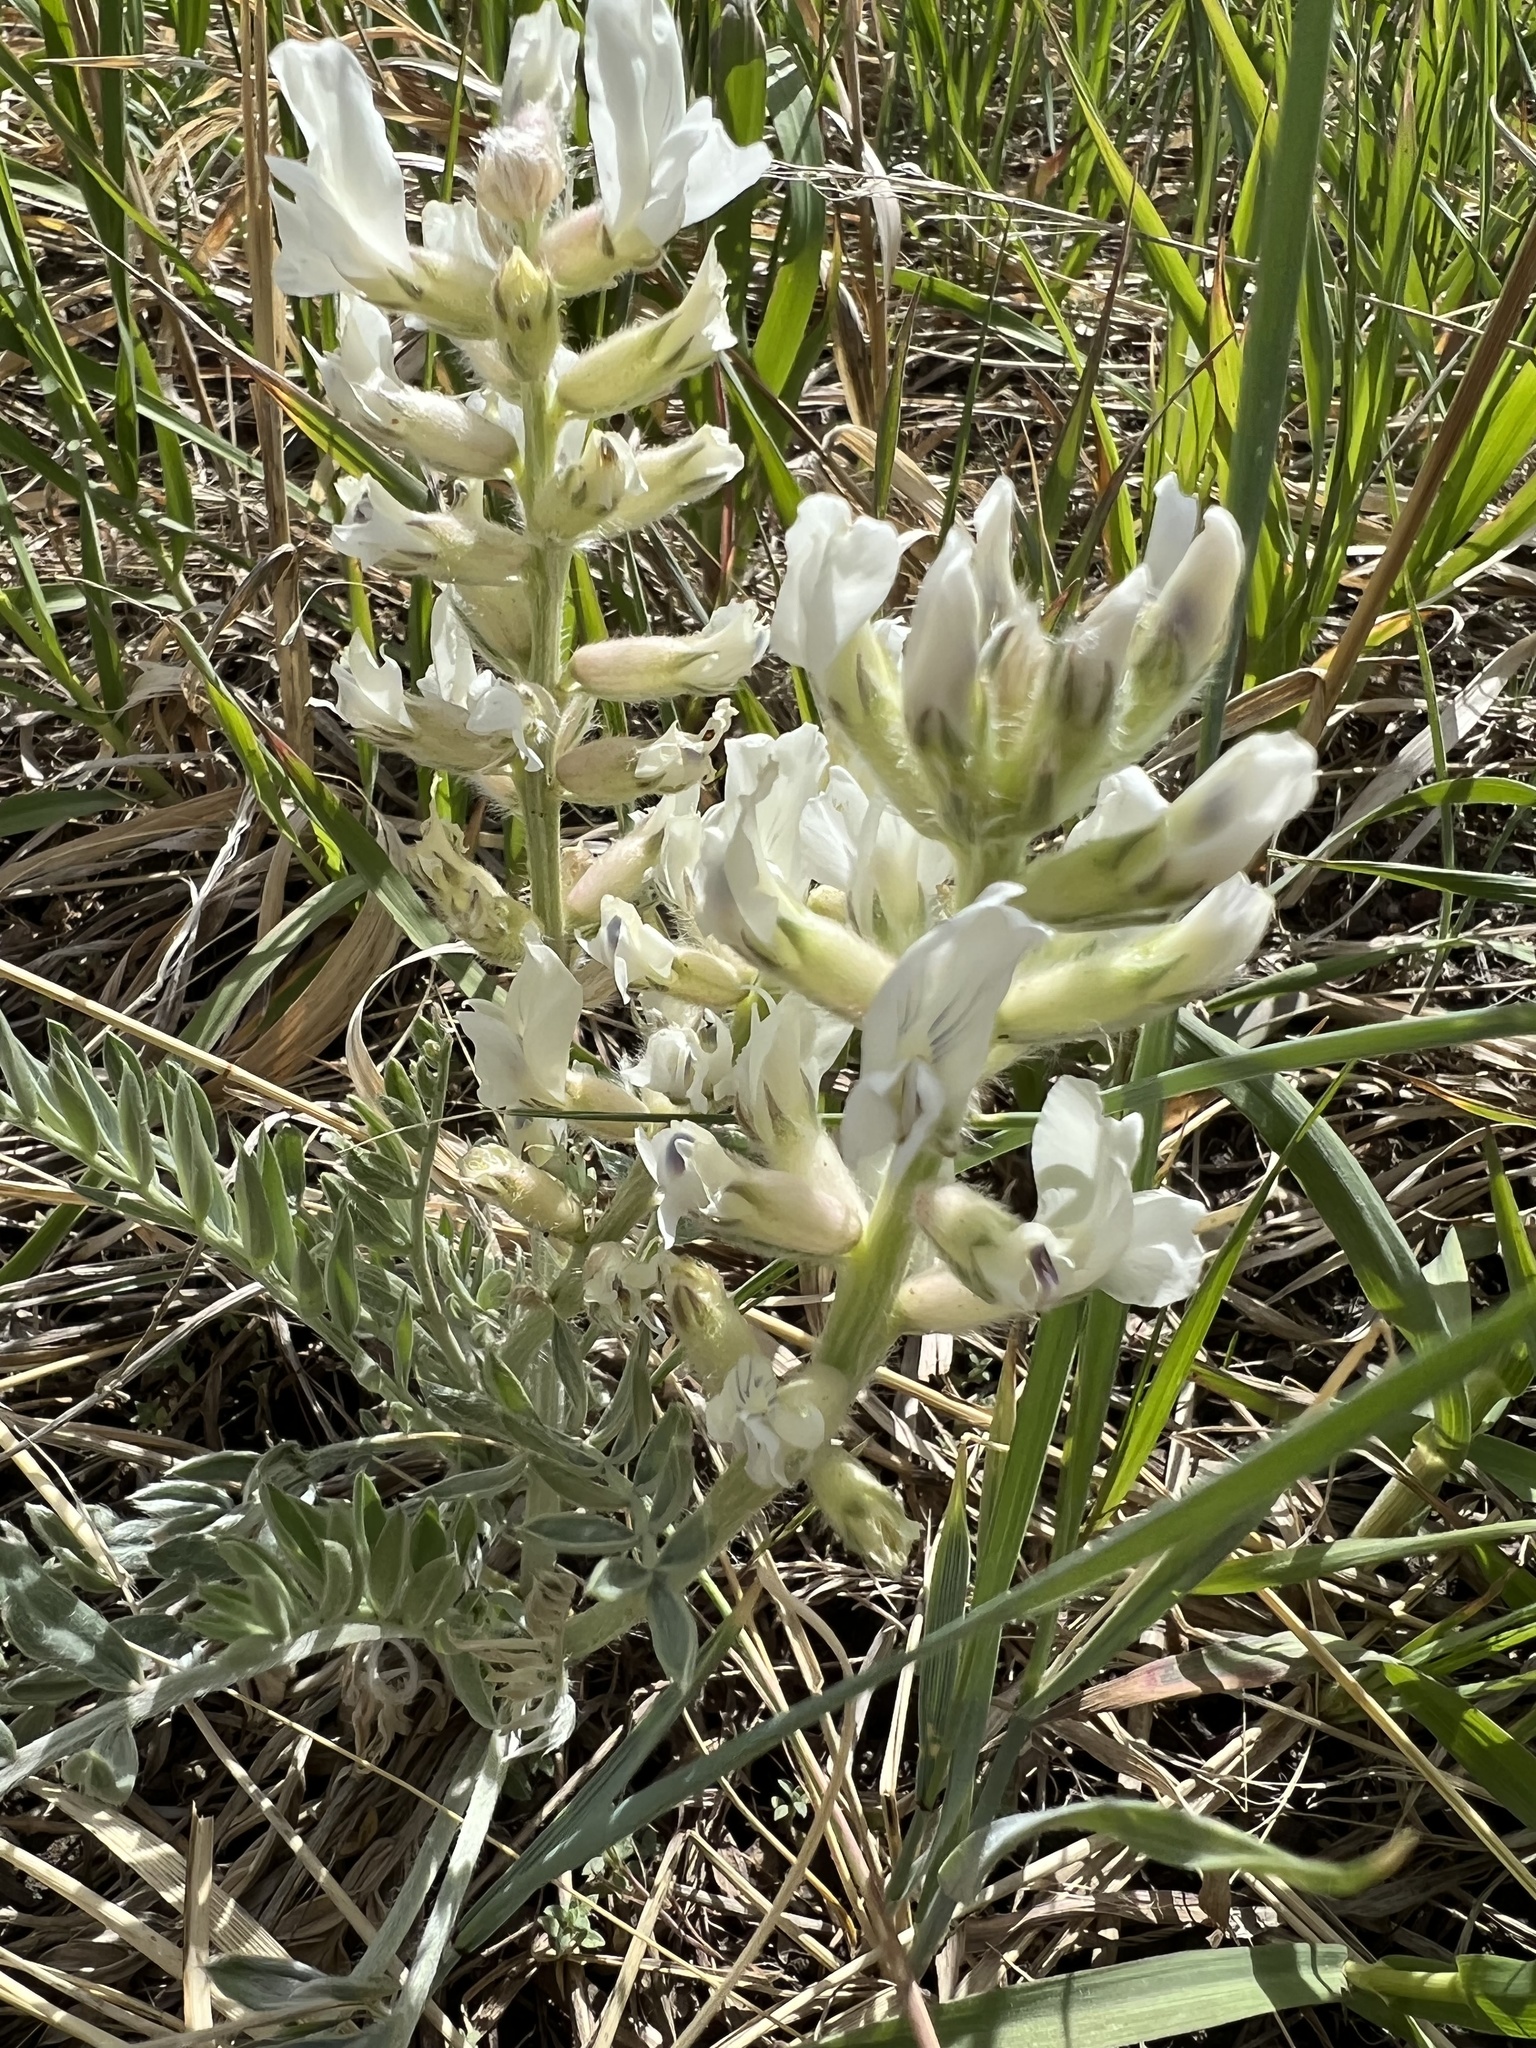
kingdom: Plantae
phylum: Tracheophyta
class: Magnoliopsida
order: Fabales
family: Fabaceae
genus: Oxytropis
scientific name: Oxytropis sericea
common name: Silky locoweed
